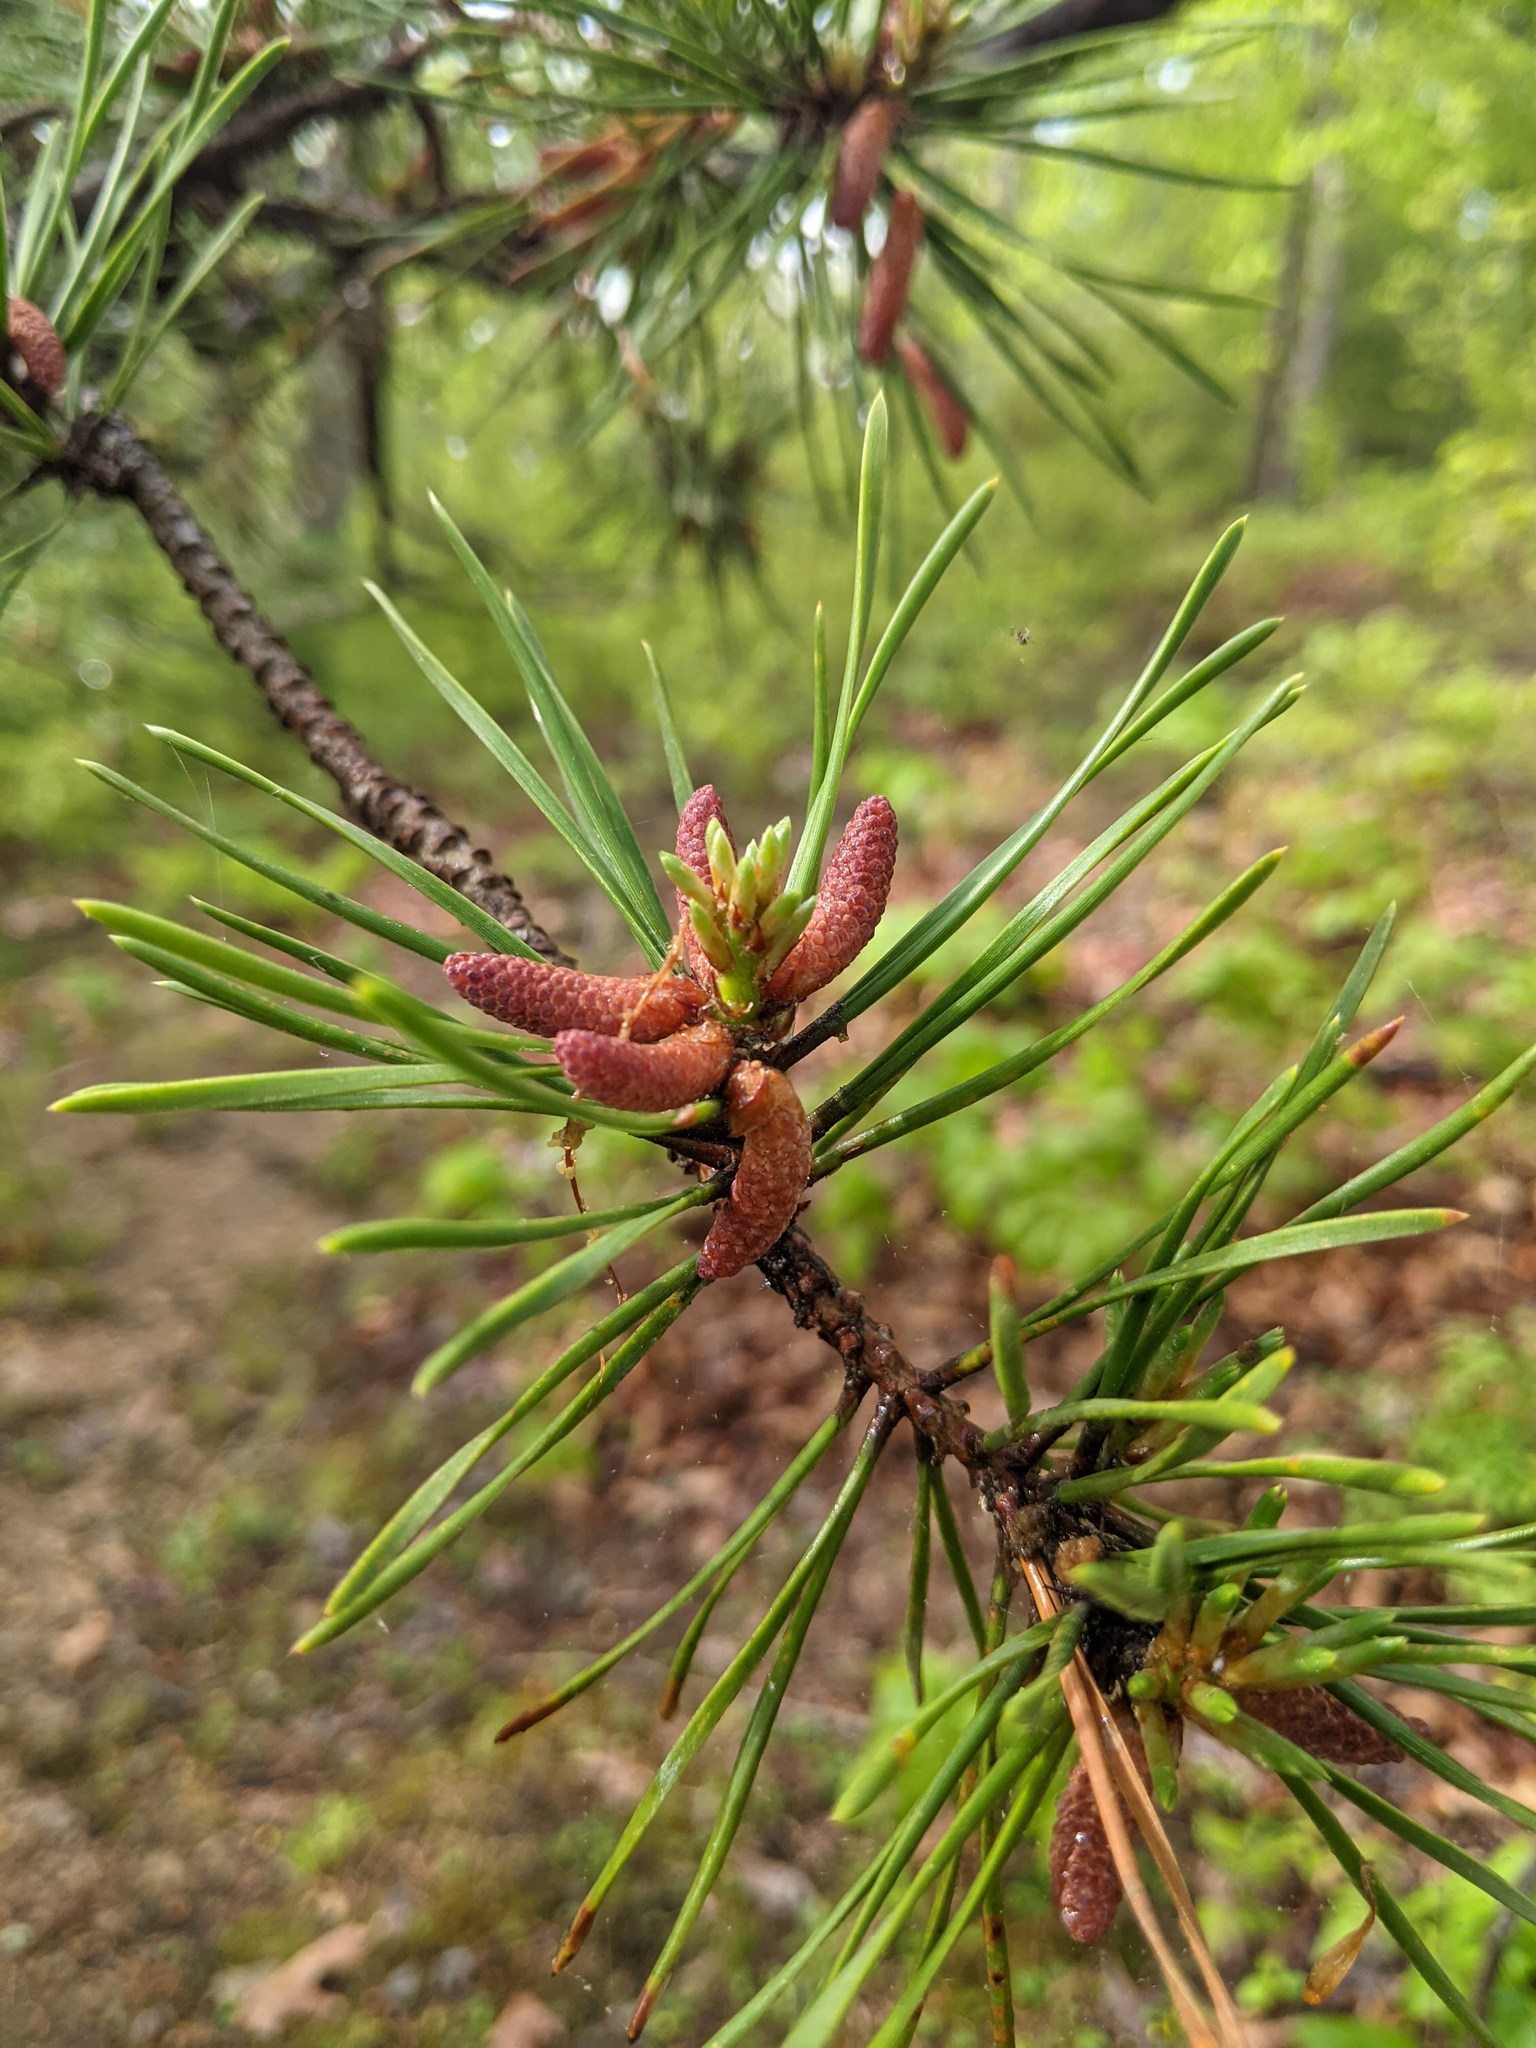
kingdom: Plantae
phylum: Tracheophyta
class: Pinopsida
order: Pinales
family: Pinaceae
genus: Pinus
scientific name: Pinus virginiana
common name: Scrub pine
